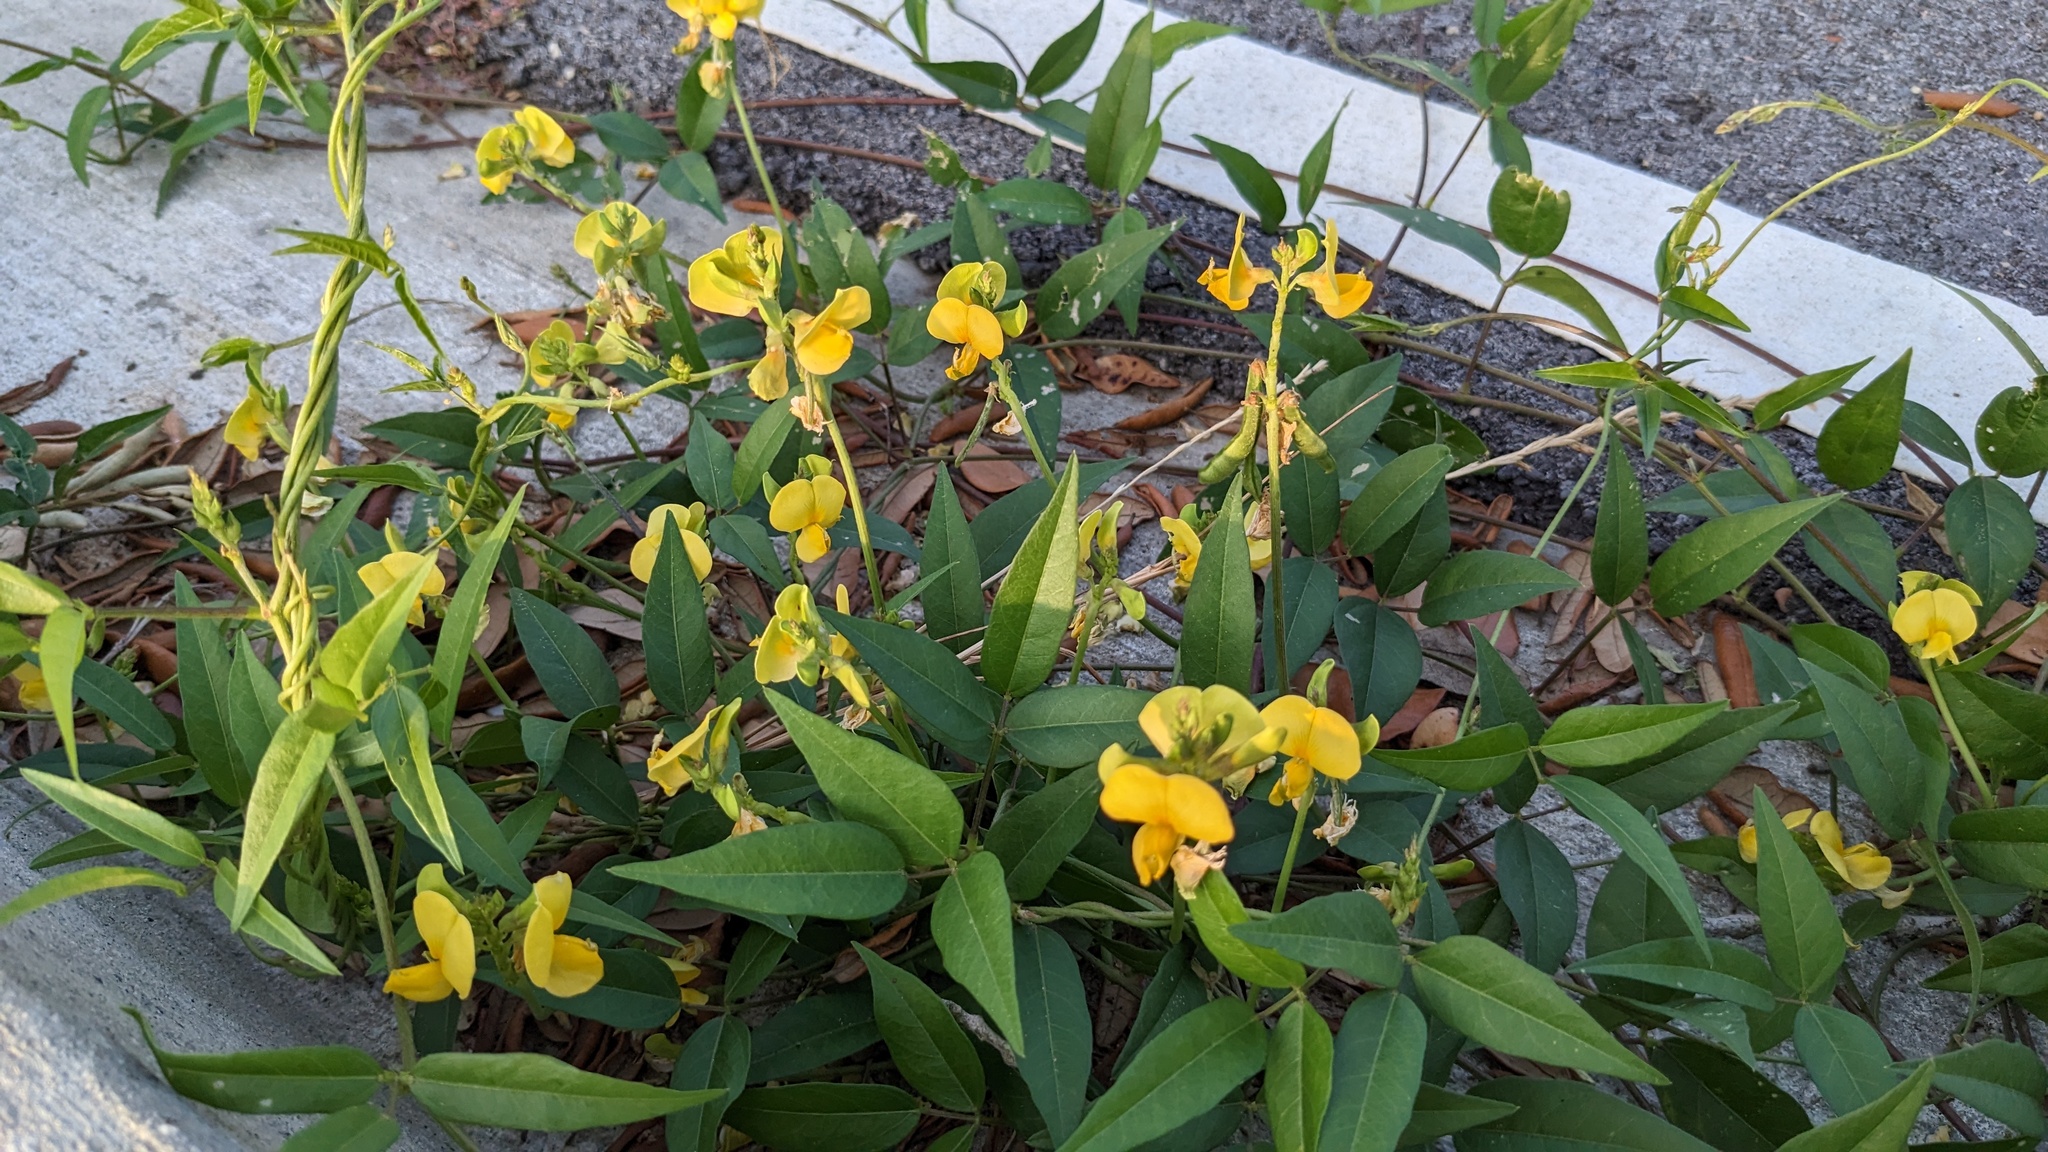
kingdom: Plantae
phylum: Tracheophyta
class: Magnoliopsida
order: Fabales
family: Fabaceae
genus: Vigna
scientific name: Vigna luteola
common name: Hairypod cowpea
